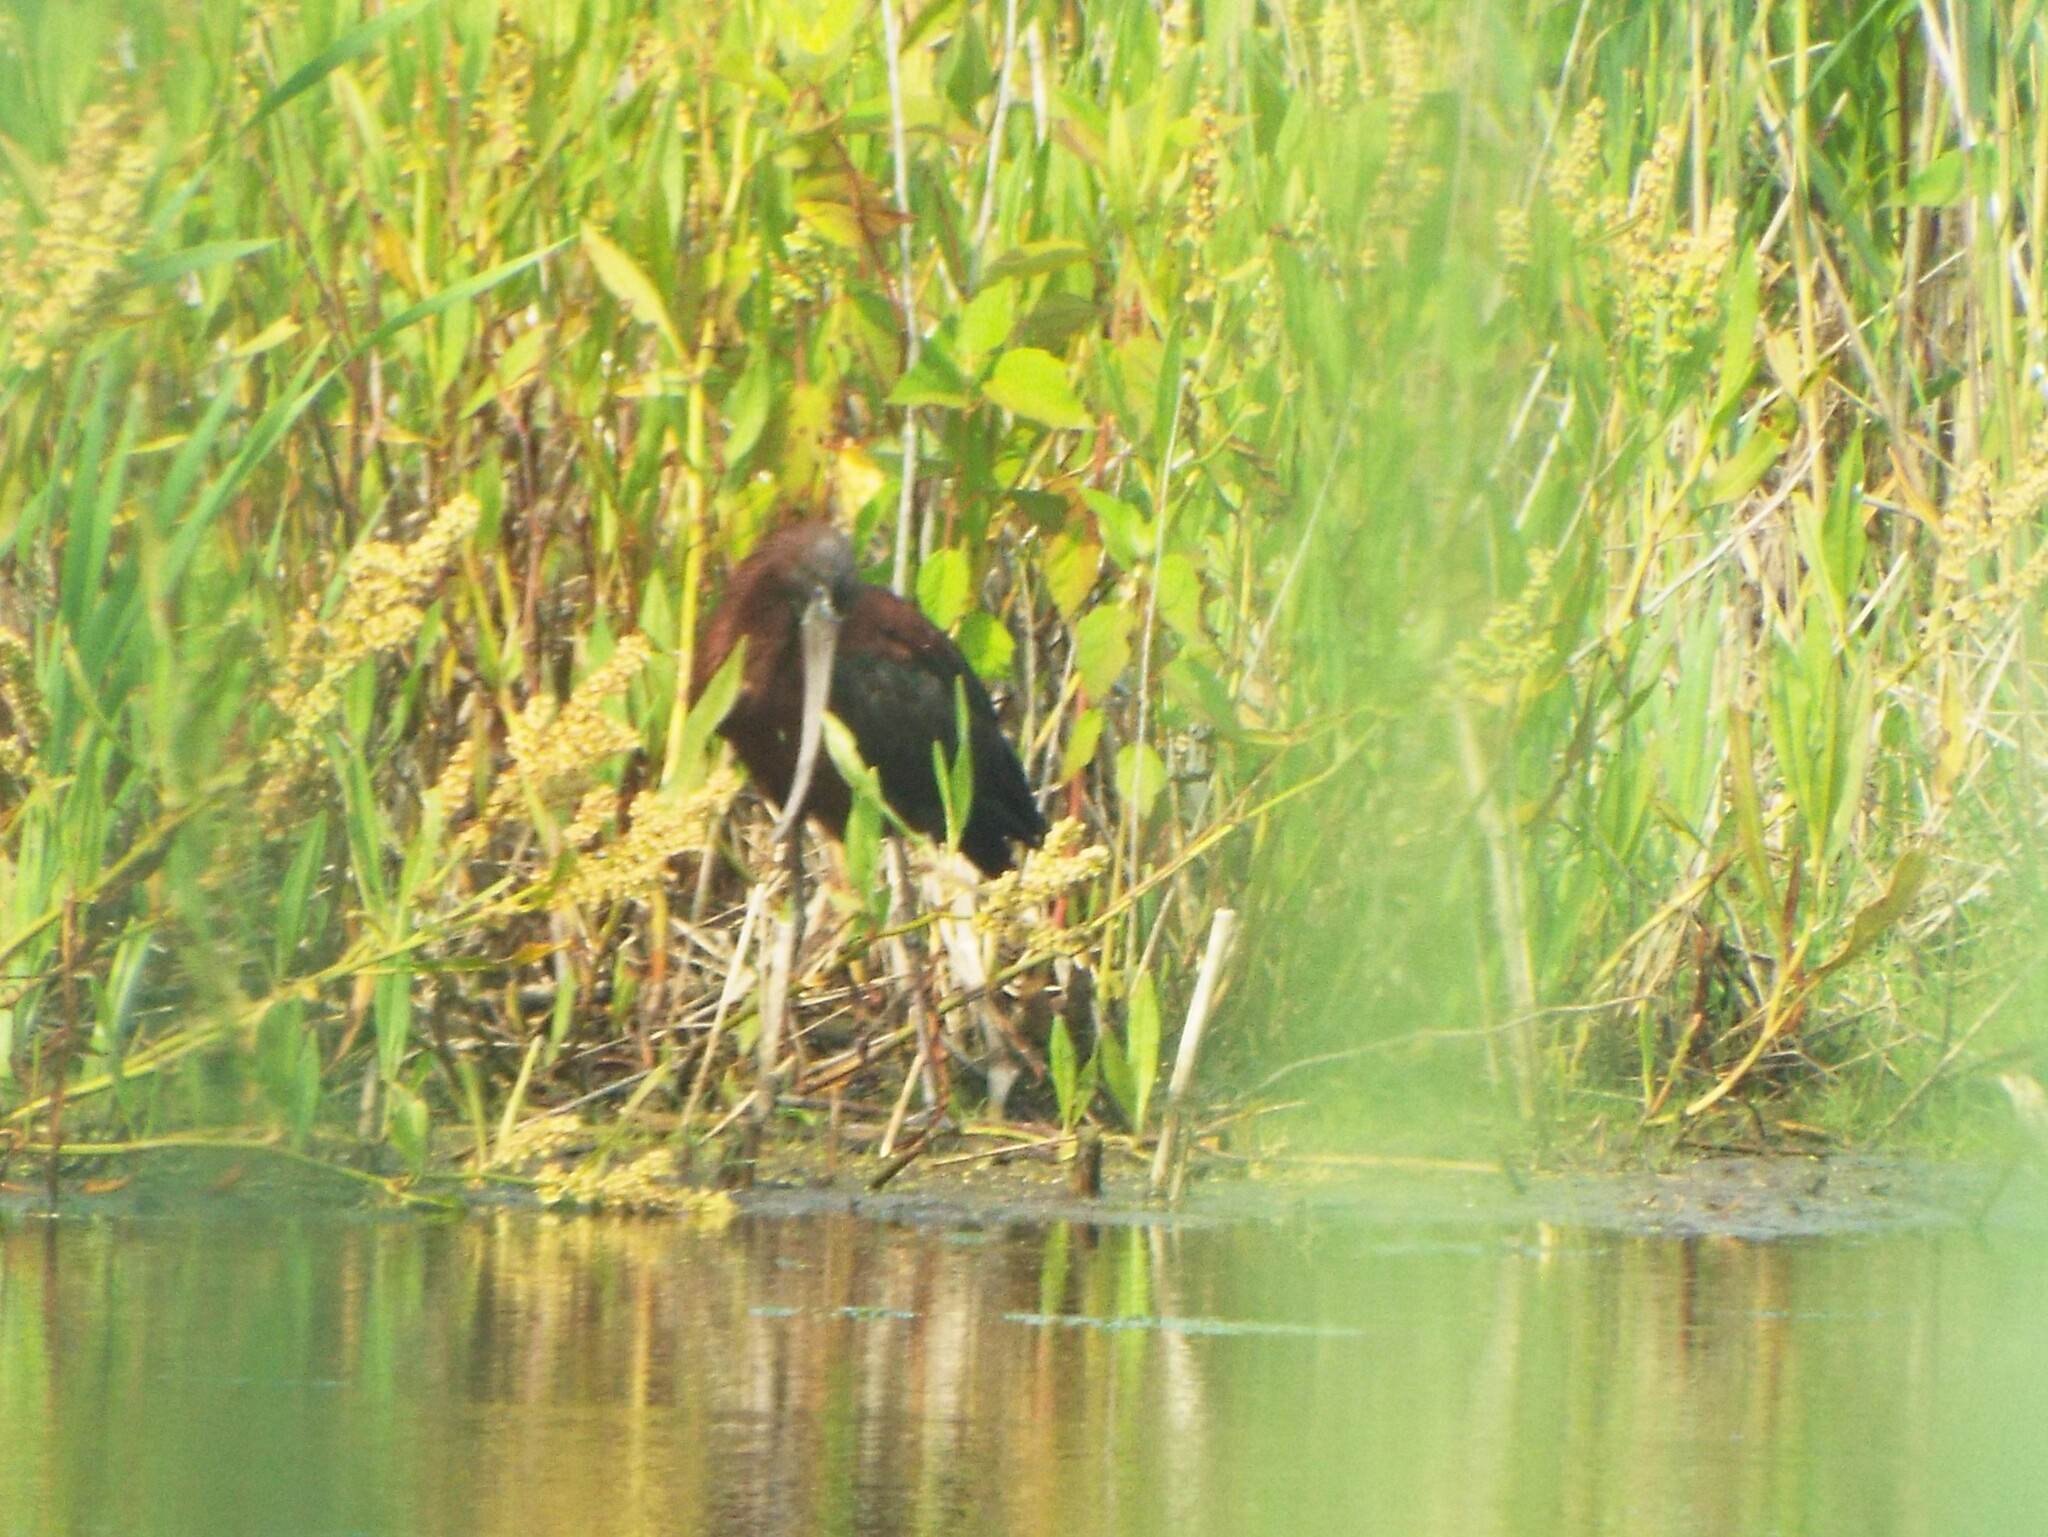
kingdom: Animalia
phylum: Chordata
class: Aves
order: Pelecaniformes
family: Threskiornithidae
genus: Plegadis
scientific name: Plegadis falcinellus
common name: Glossy ibis
